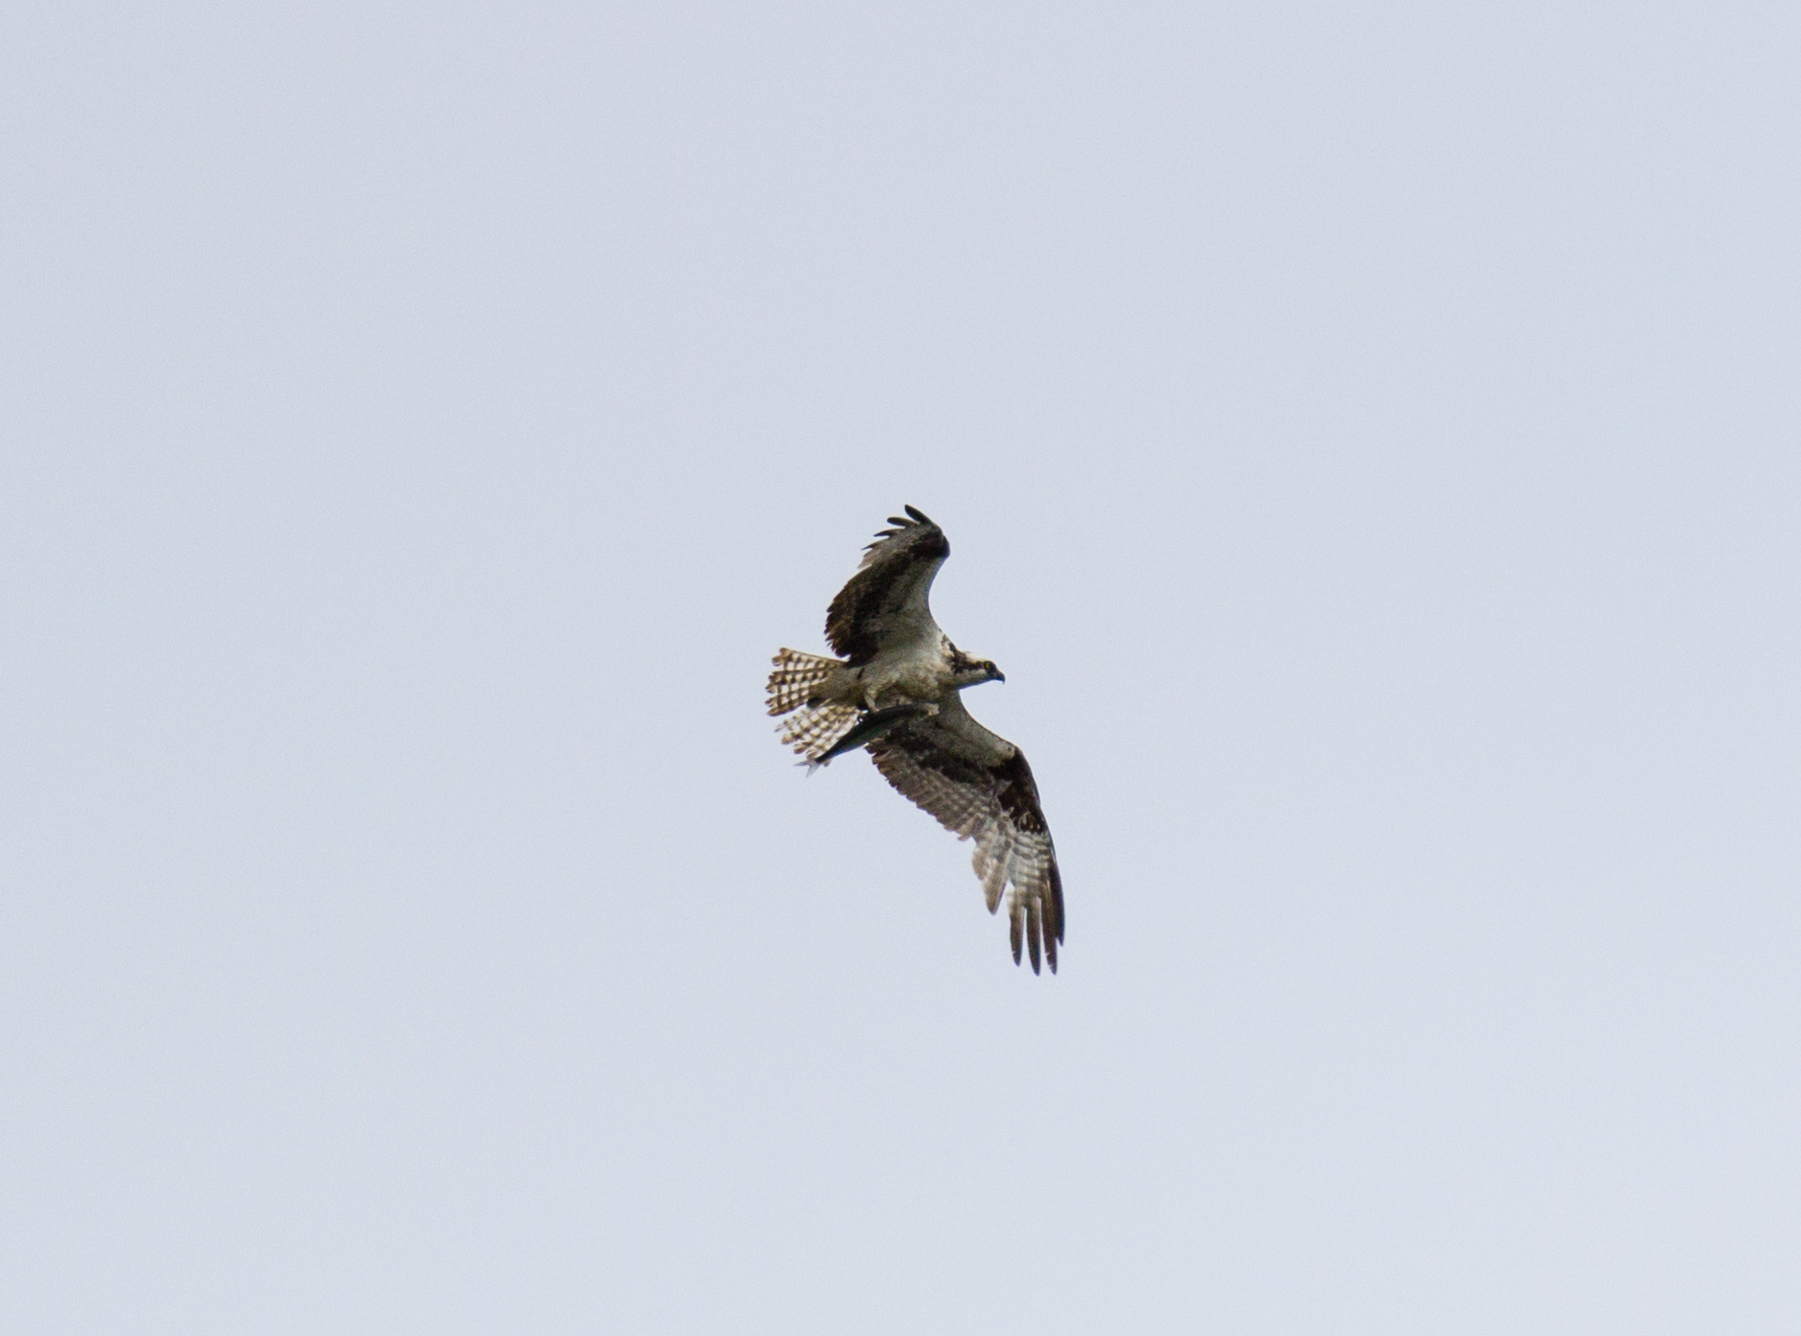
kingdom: Animalia
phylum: Chordata
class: Aves
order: Accipitriformes
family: Pandionidae
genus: Pandion
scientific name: Pandion haliaetus
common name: Osprey
